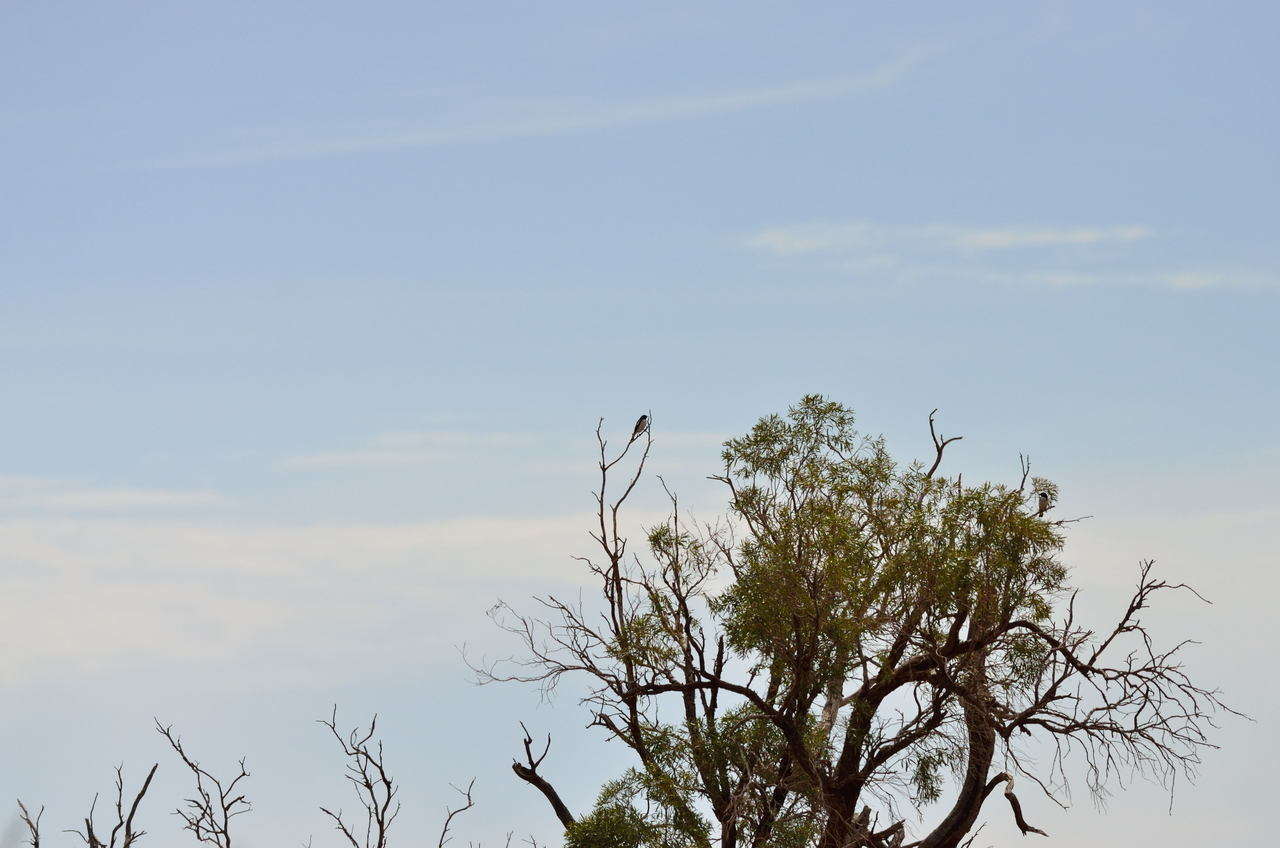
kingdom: Animalia
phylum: Chordata
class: Aves
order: Passeriformes
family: Meliphagidae
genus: Certhionyx
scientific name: Certhionyx variegatus
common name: Pied honeyeater
